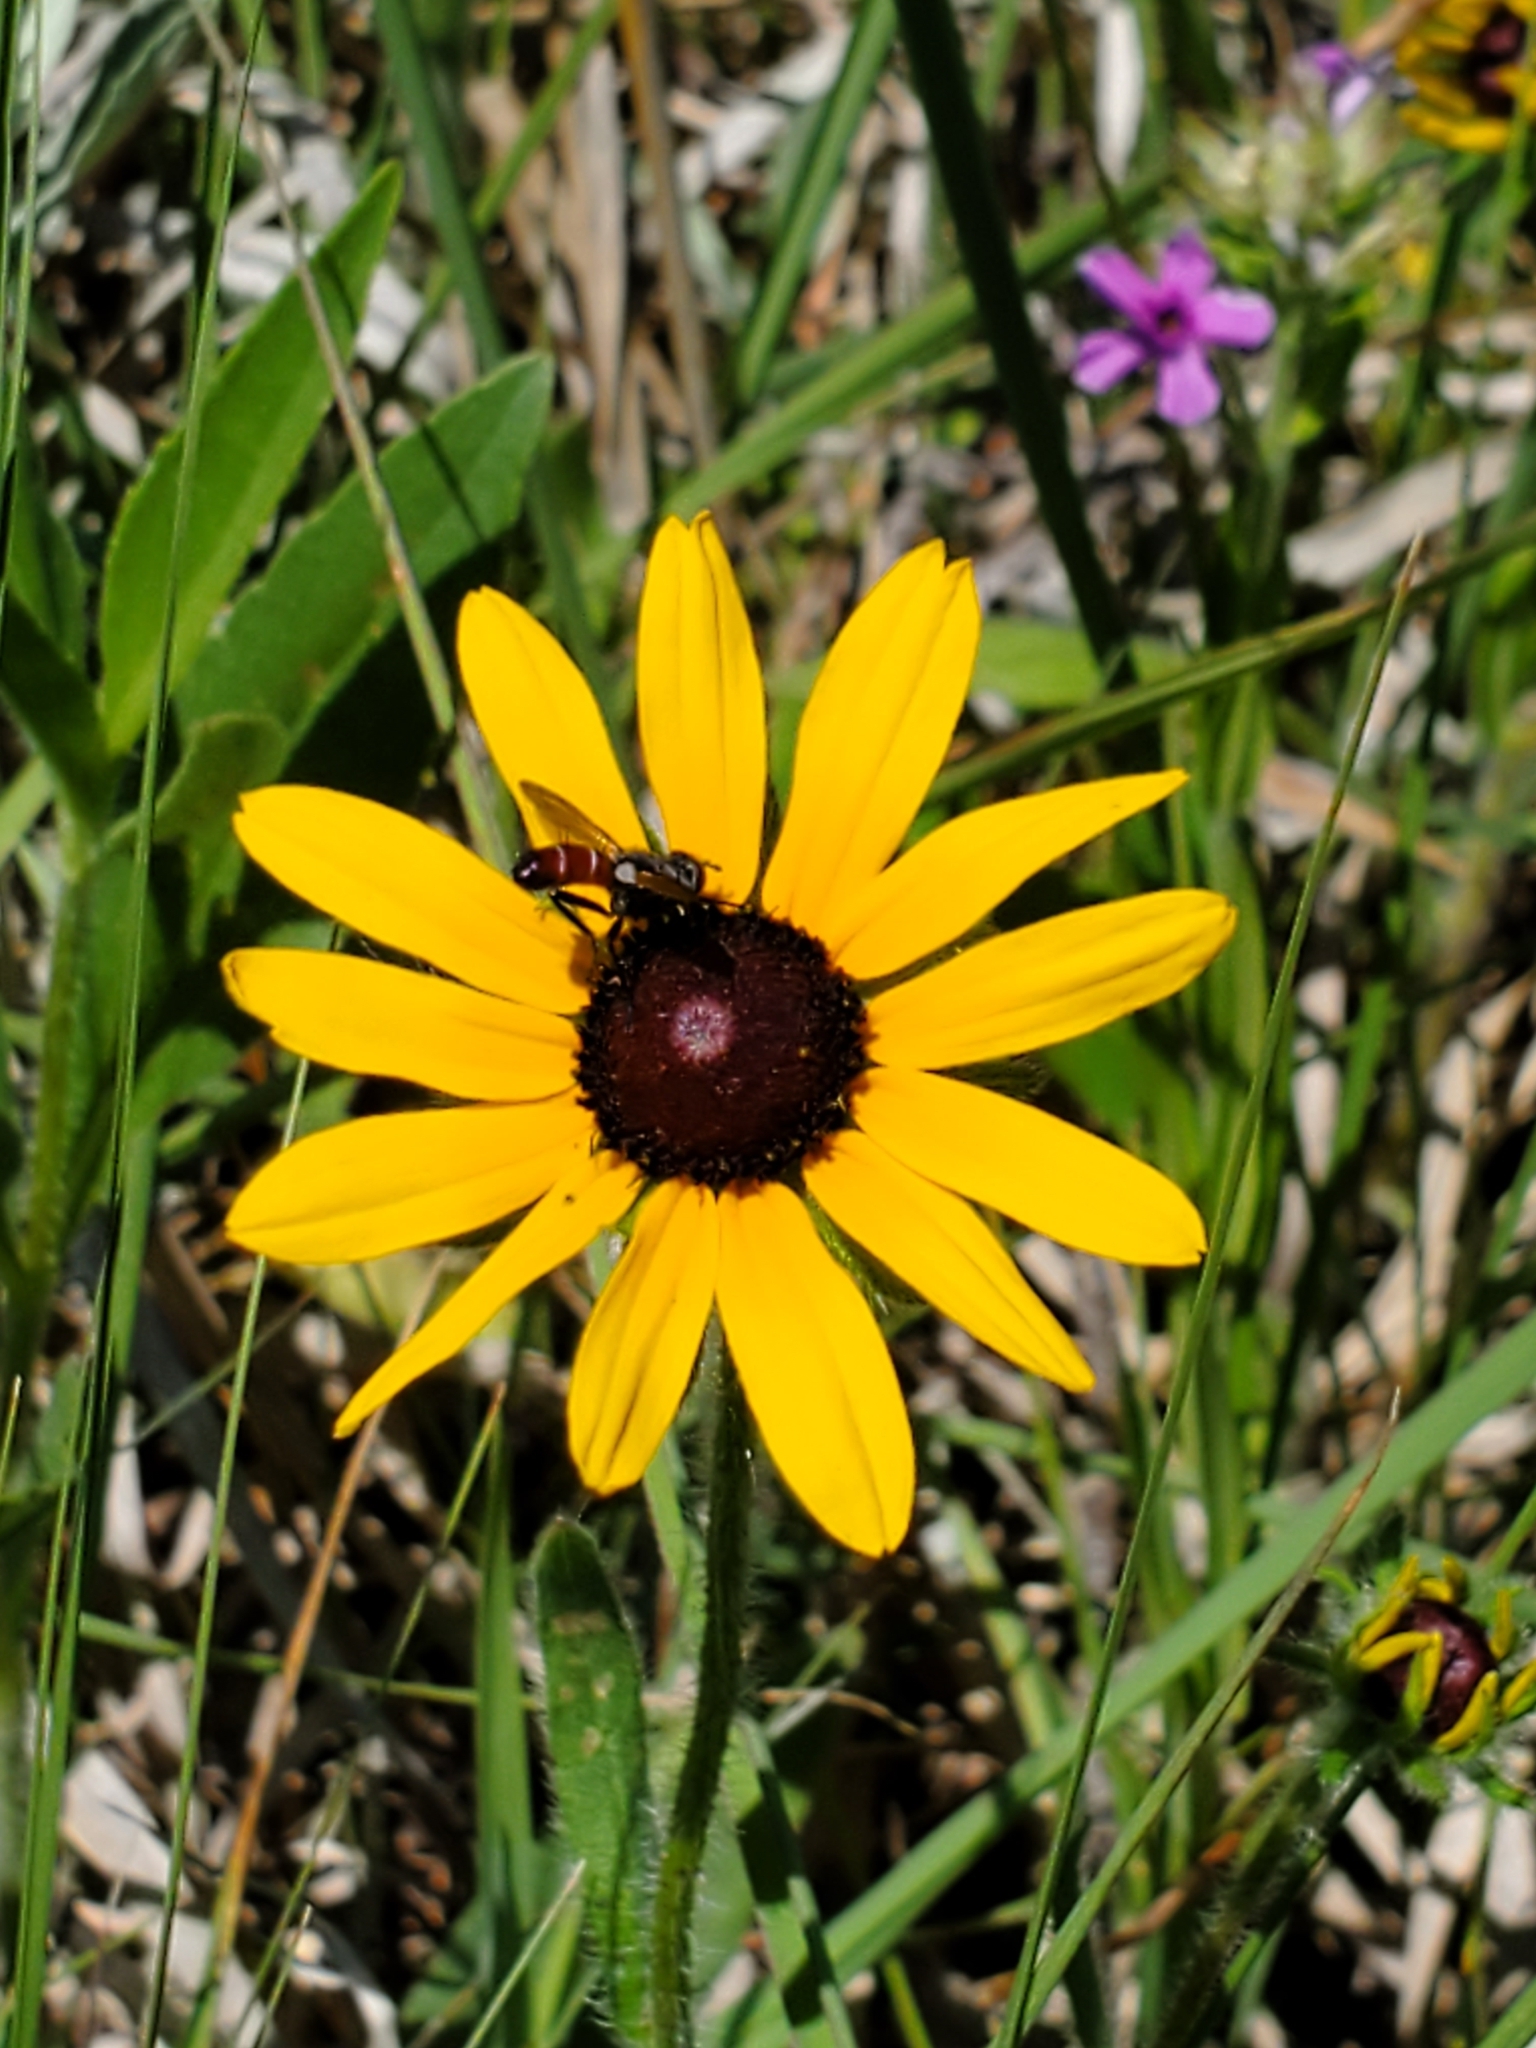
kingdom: Plantae
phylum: Tracheophyta
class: Magnoliopsida
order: Asterales
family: Asteraceae
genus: Rudbeckia
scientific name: Rudbeckia hirta
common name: Black-eyed-susan
